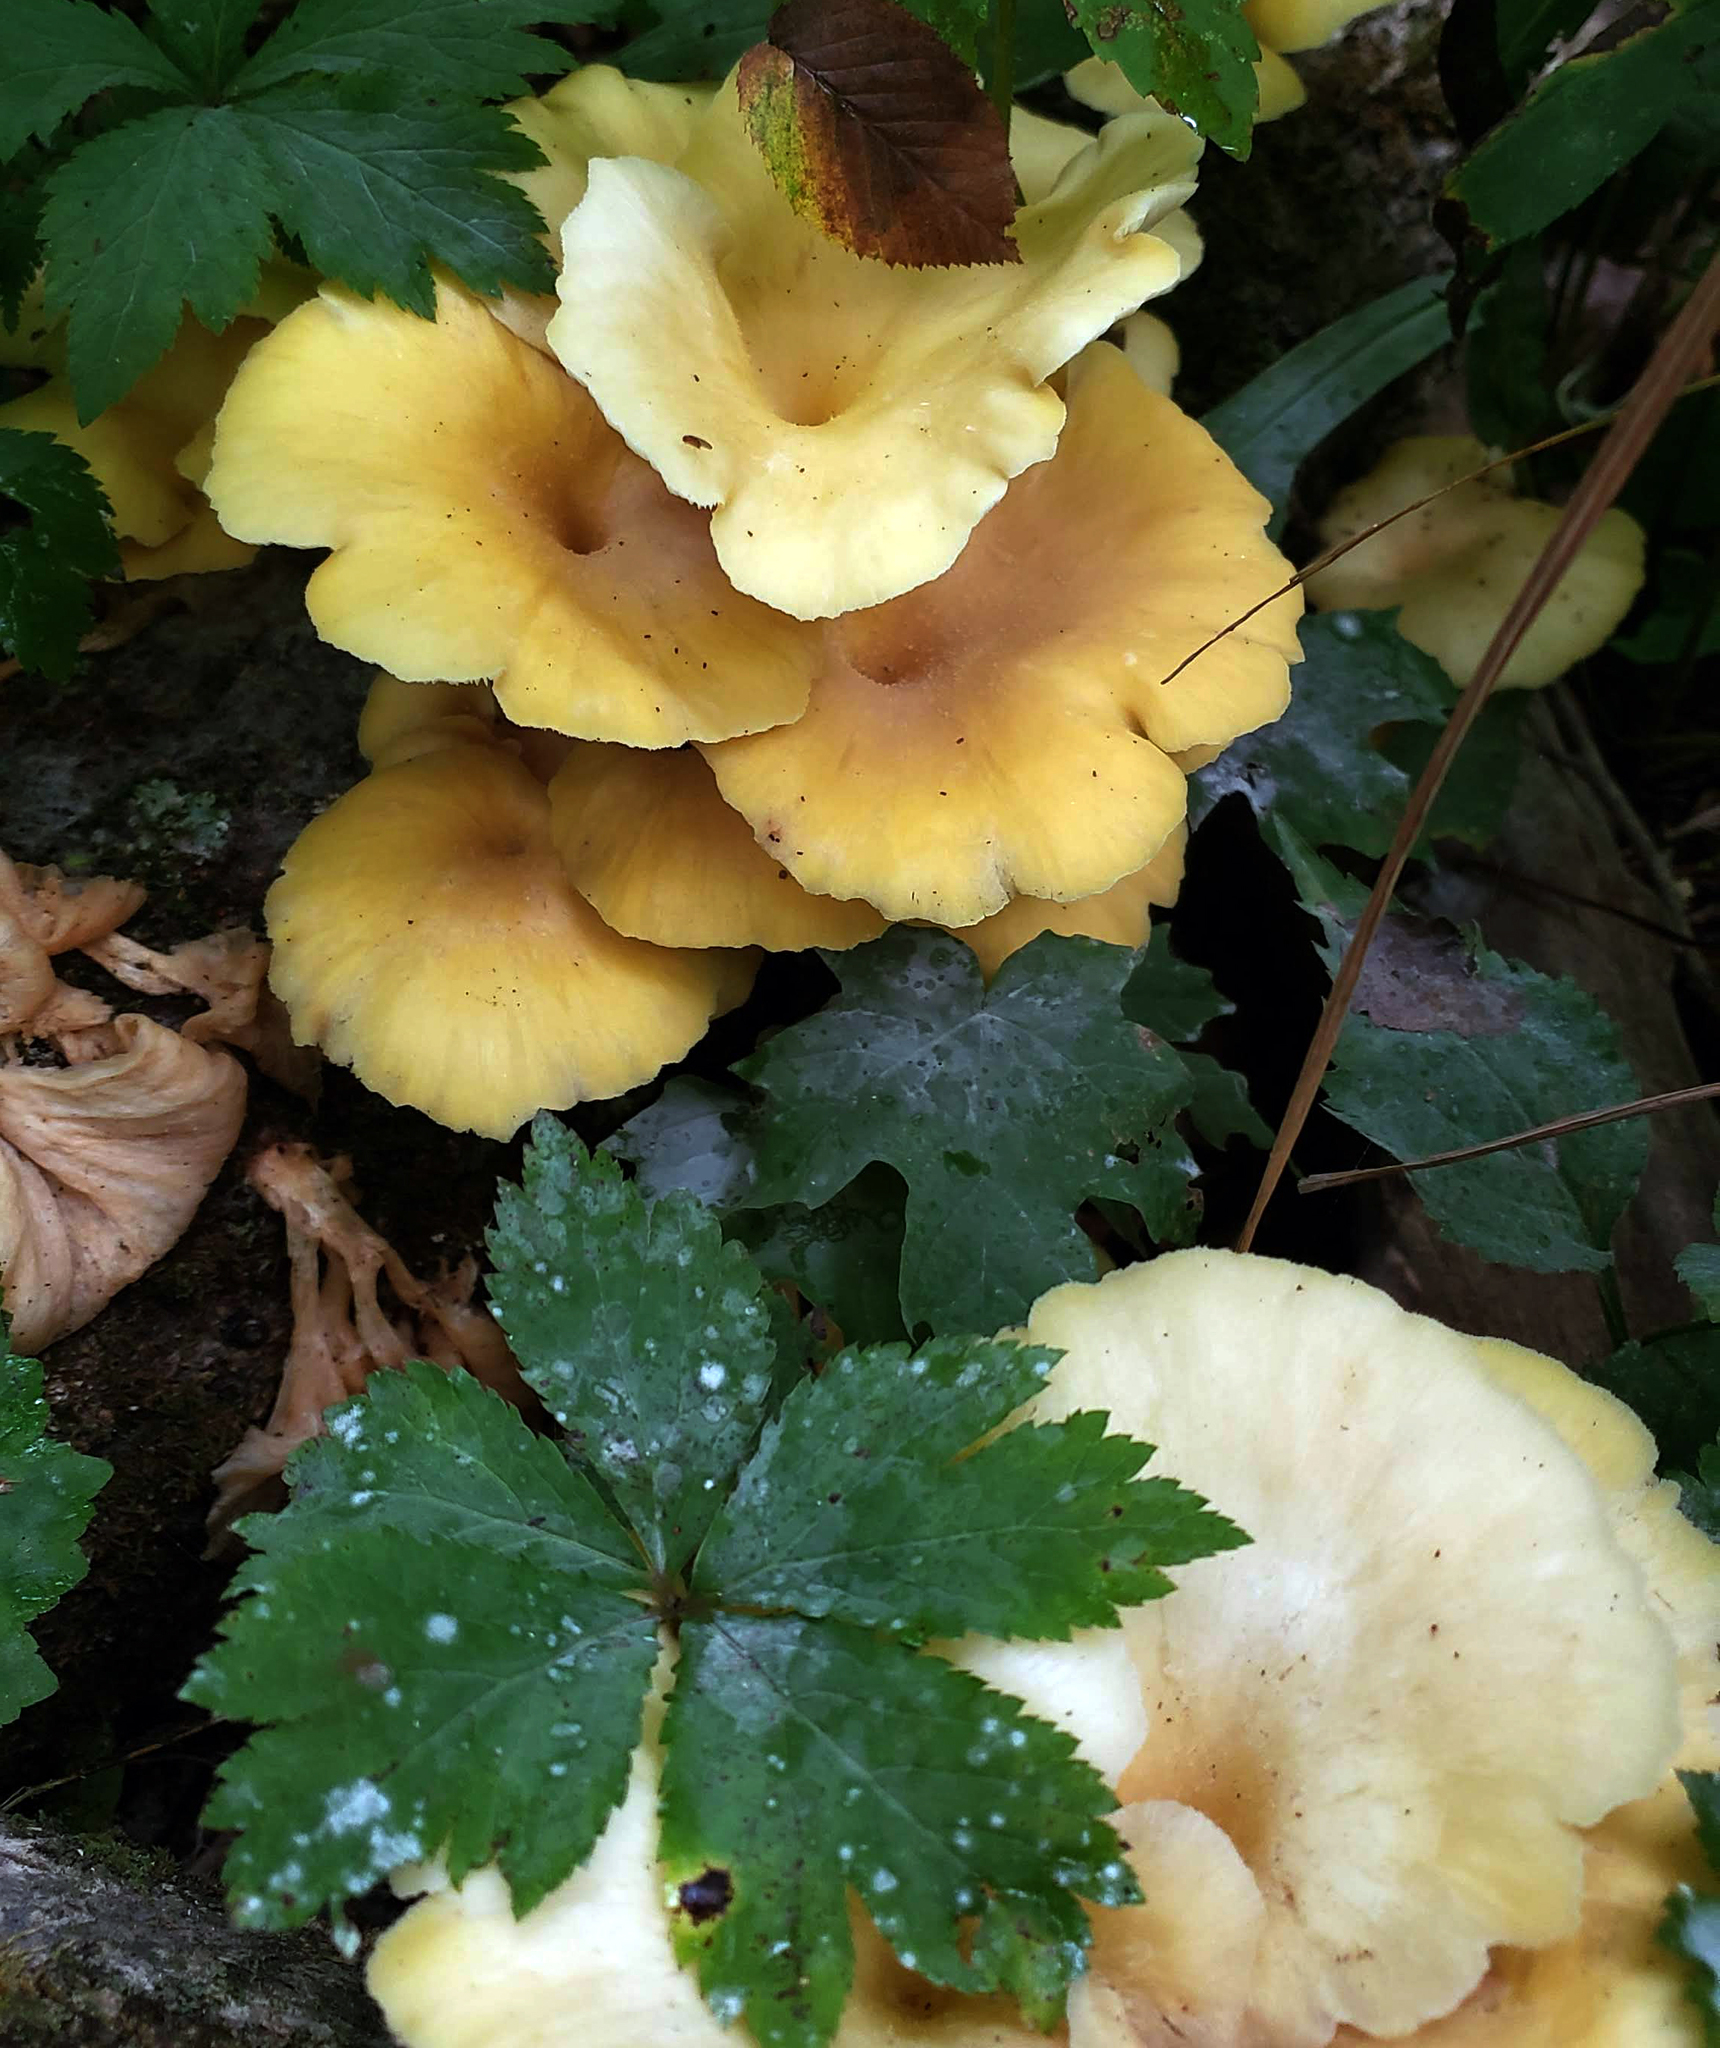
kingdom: Fungi
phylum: Basidiomycota
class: Agaricomycetes
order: Agaricales
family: Pleurotaceae
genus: Pleurotus
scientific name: Pleurotus citrinopileatus
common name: Golden oyster mushroom
